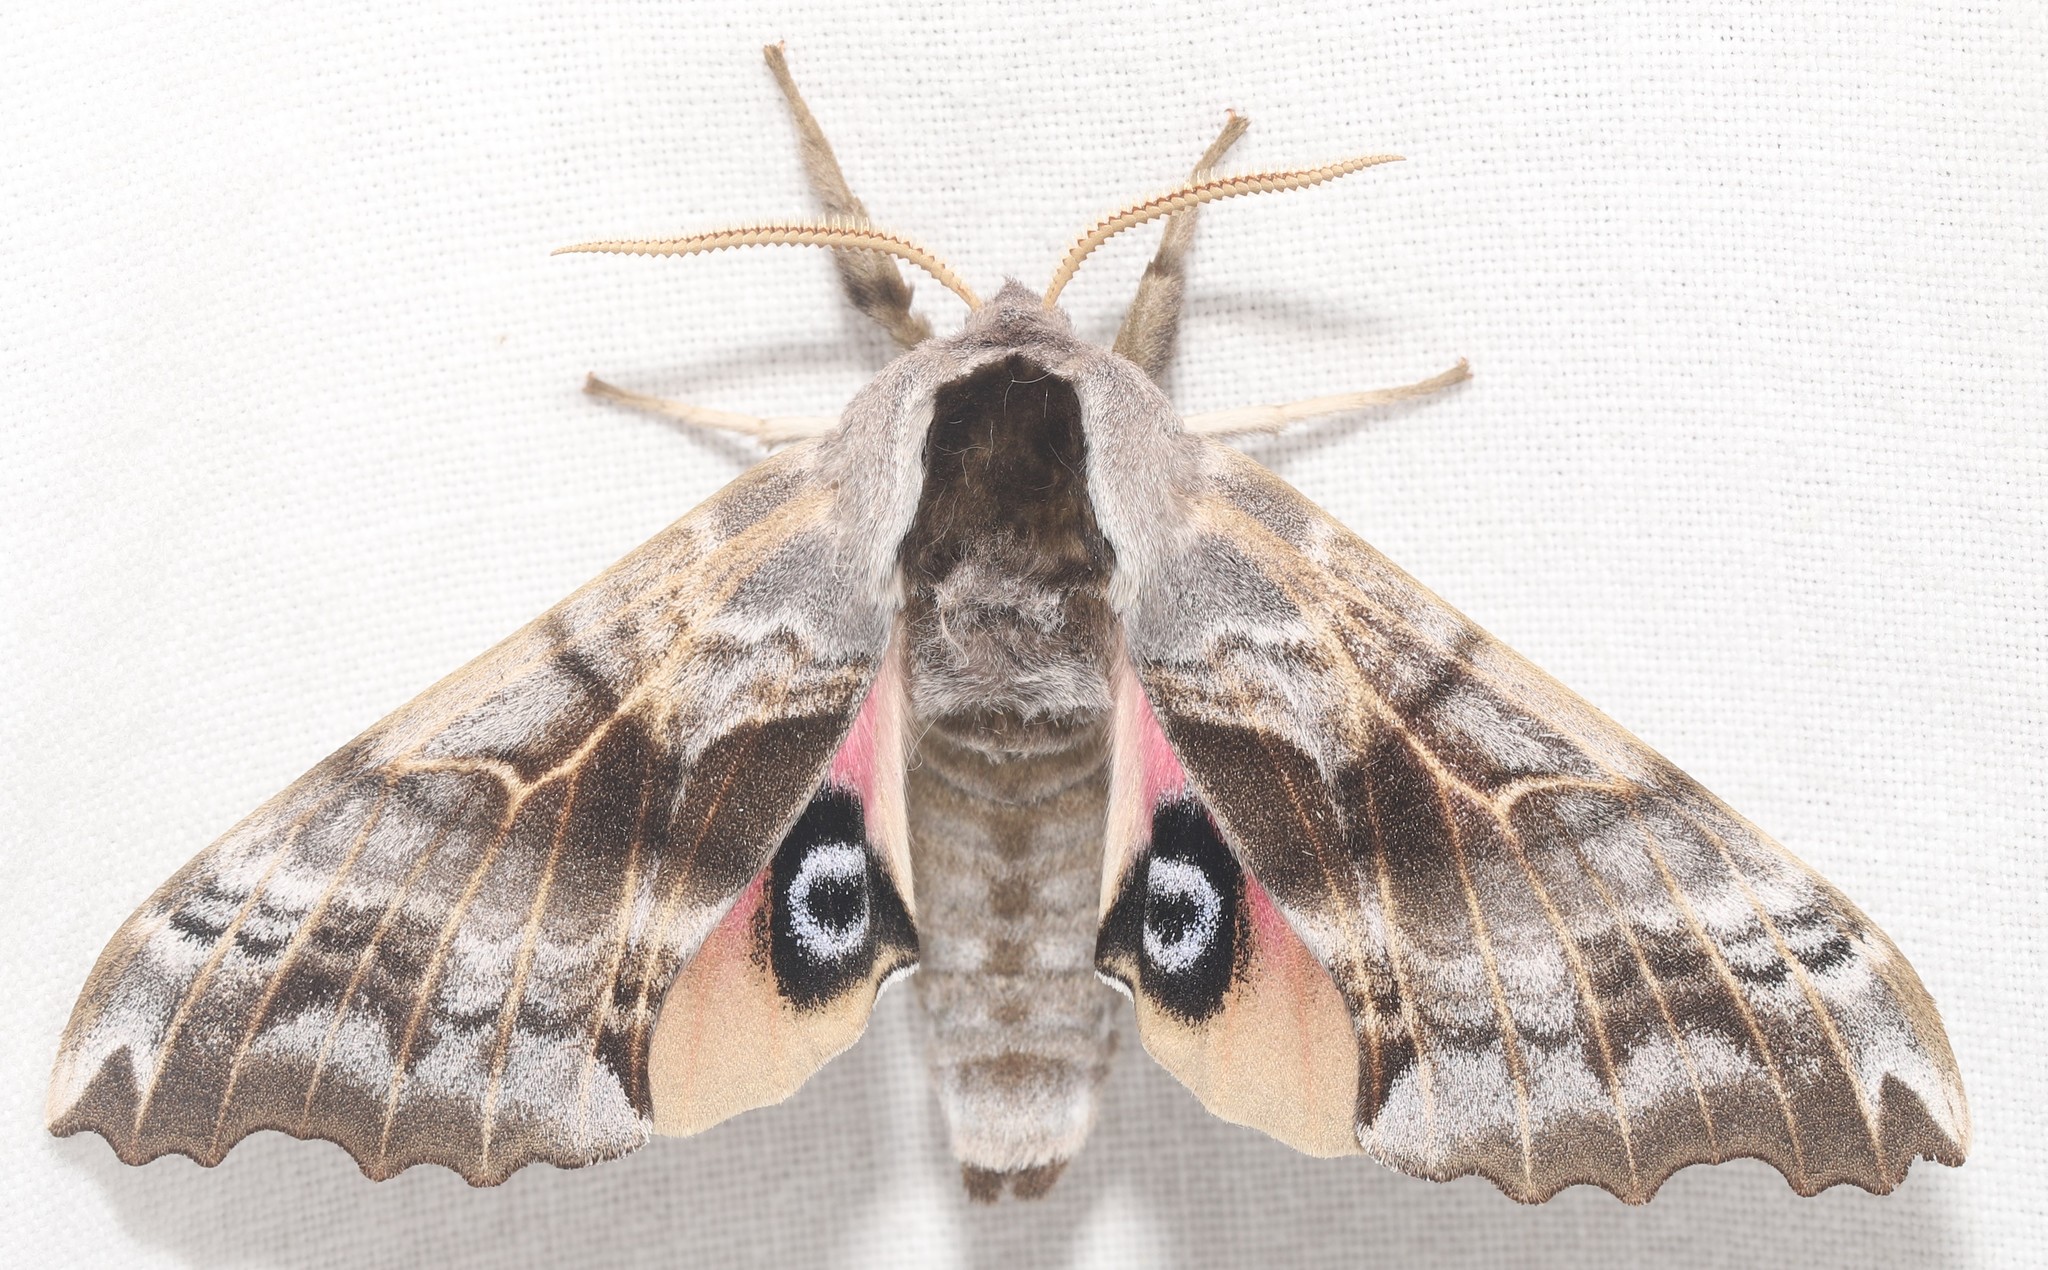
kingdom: Animalia
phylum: Arthropoda
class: Insecta
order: Lepidoptera
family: Sphingidae
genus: Smerinthus
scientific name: Smerinthus cerisyi
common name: Cerisy's sphinx moth
